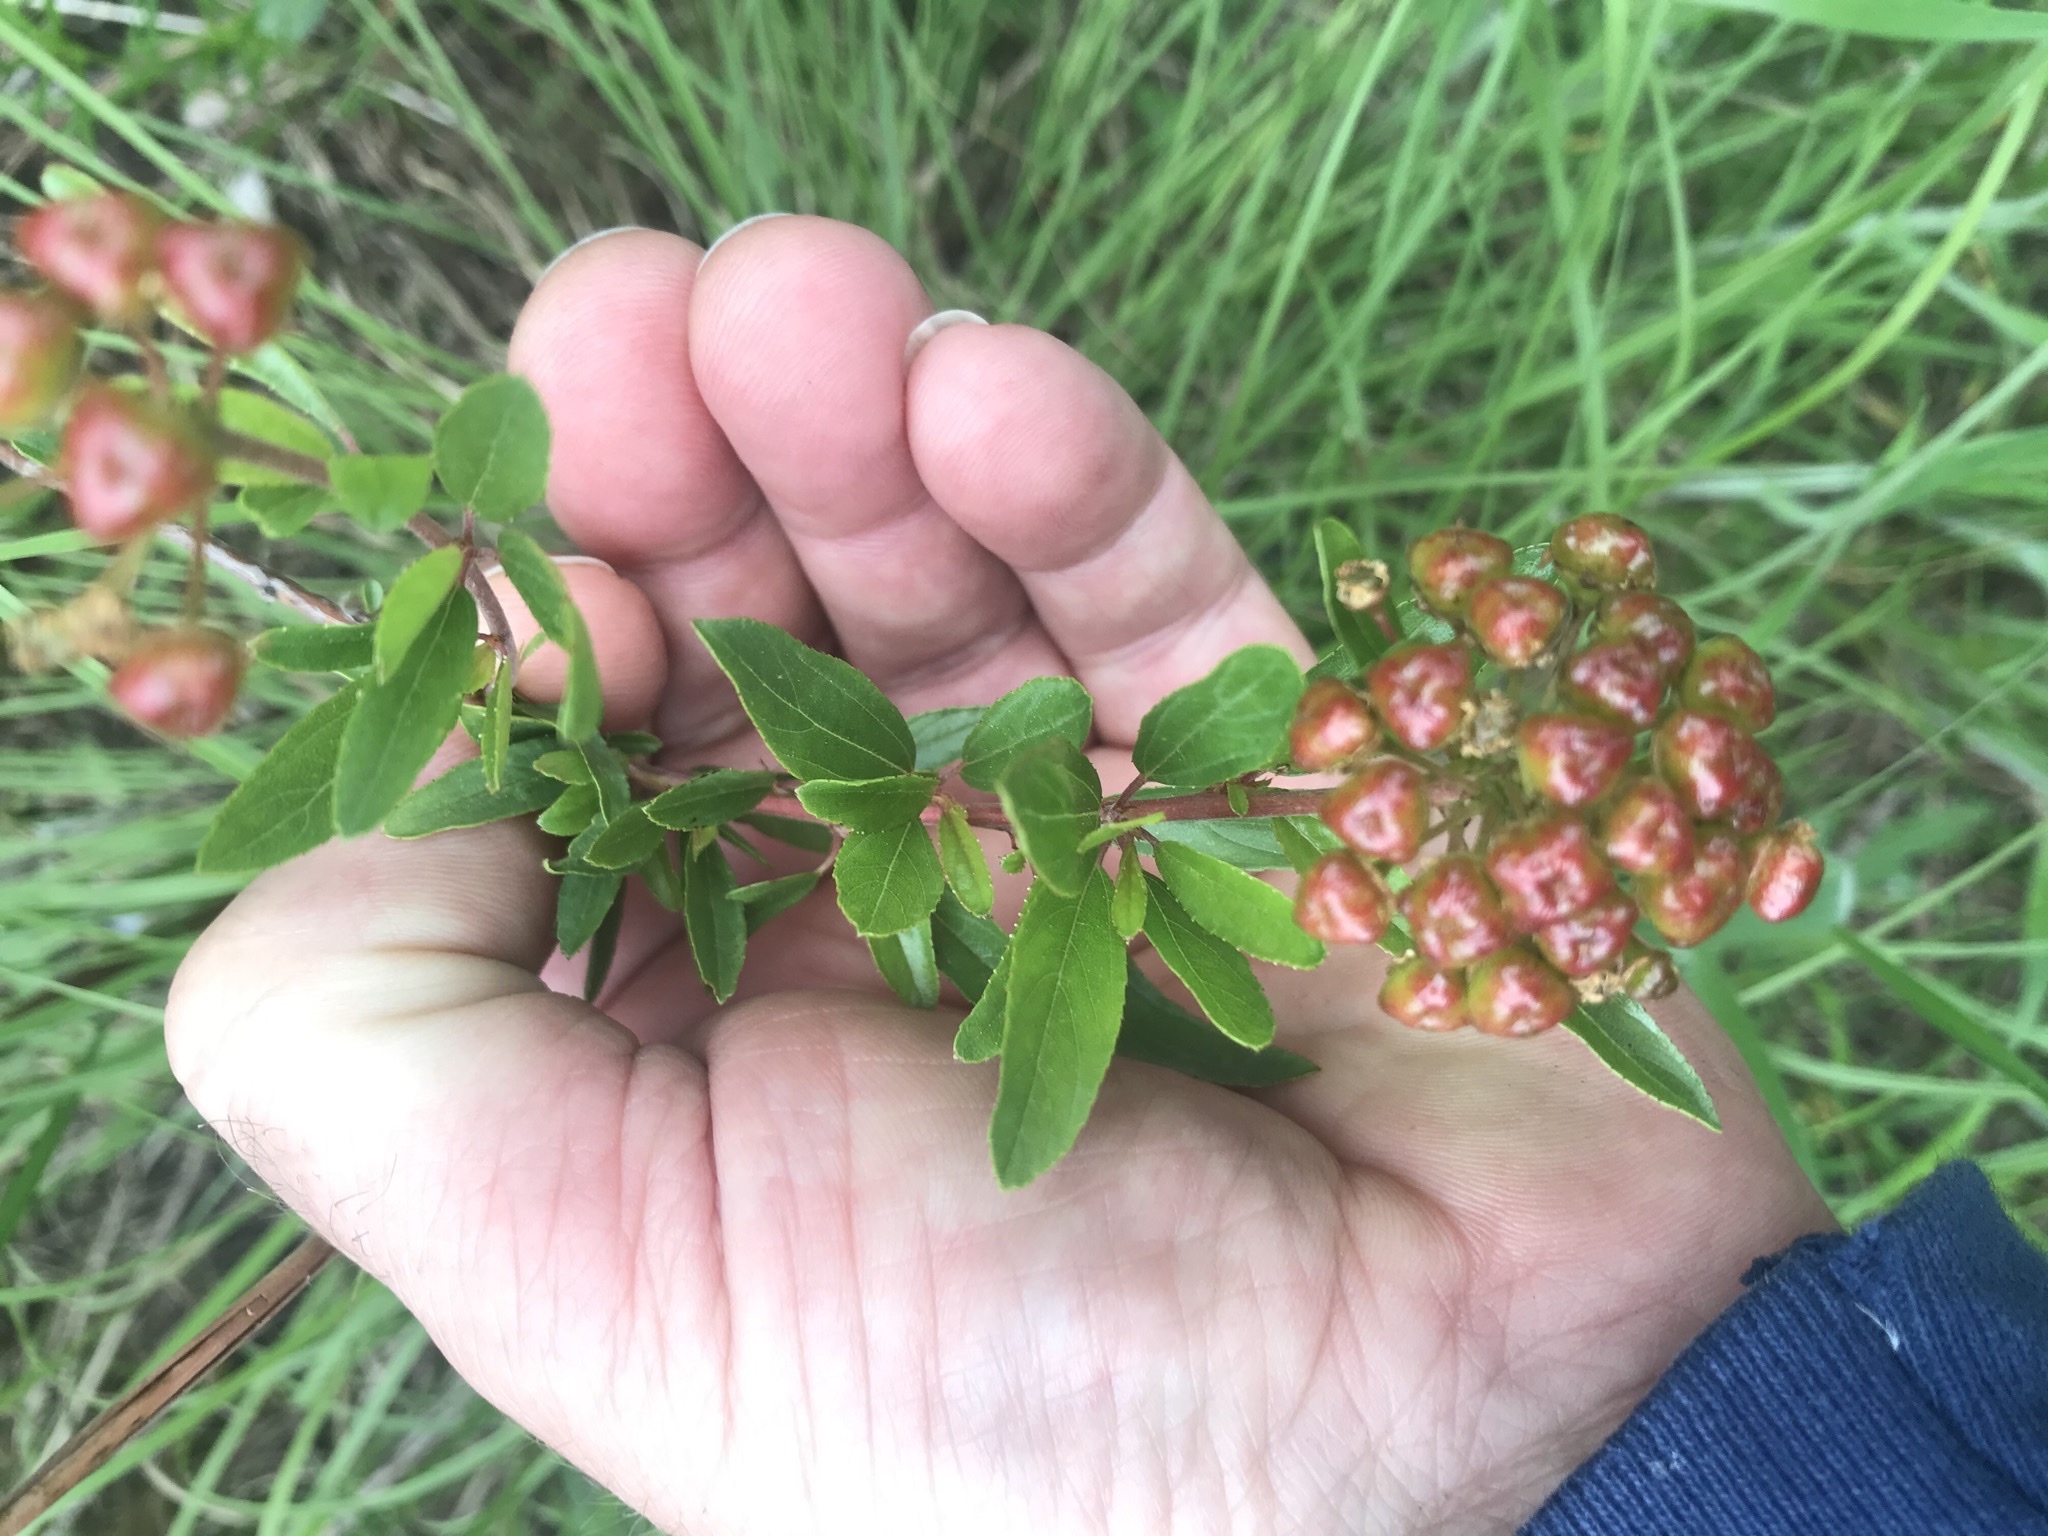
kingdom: Plantae
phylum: Tracheophyta
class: Magnoliopsida
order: Rosales
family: Rhamnaceae
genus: Ceanothus
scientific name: Ceanothus herbaceus
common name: Inland ceanothus
